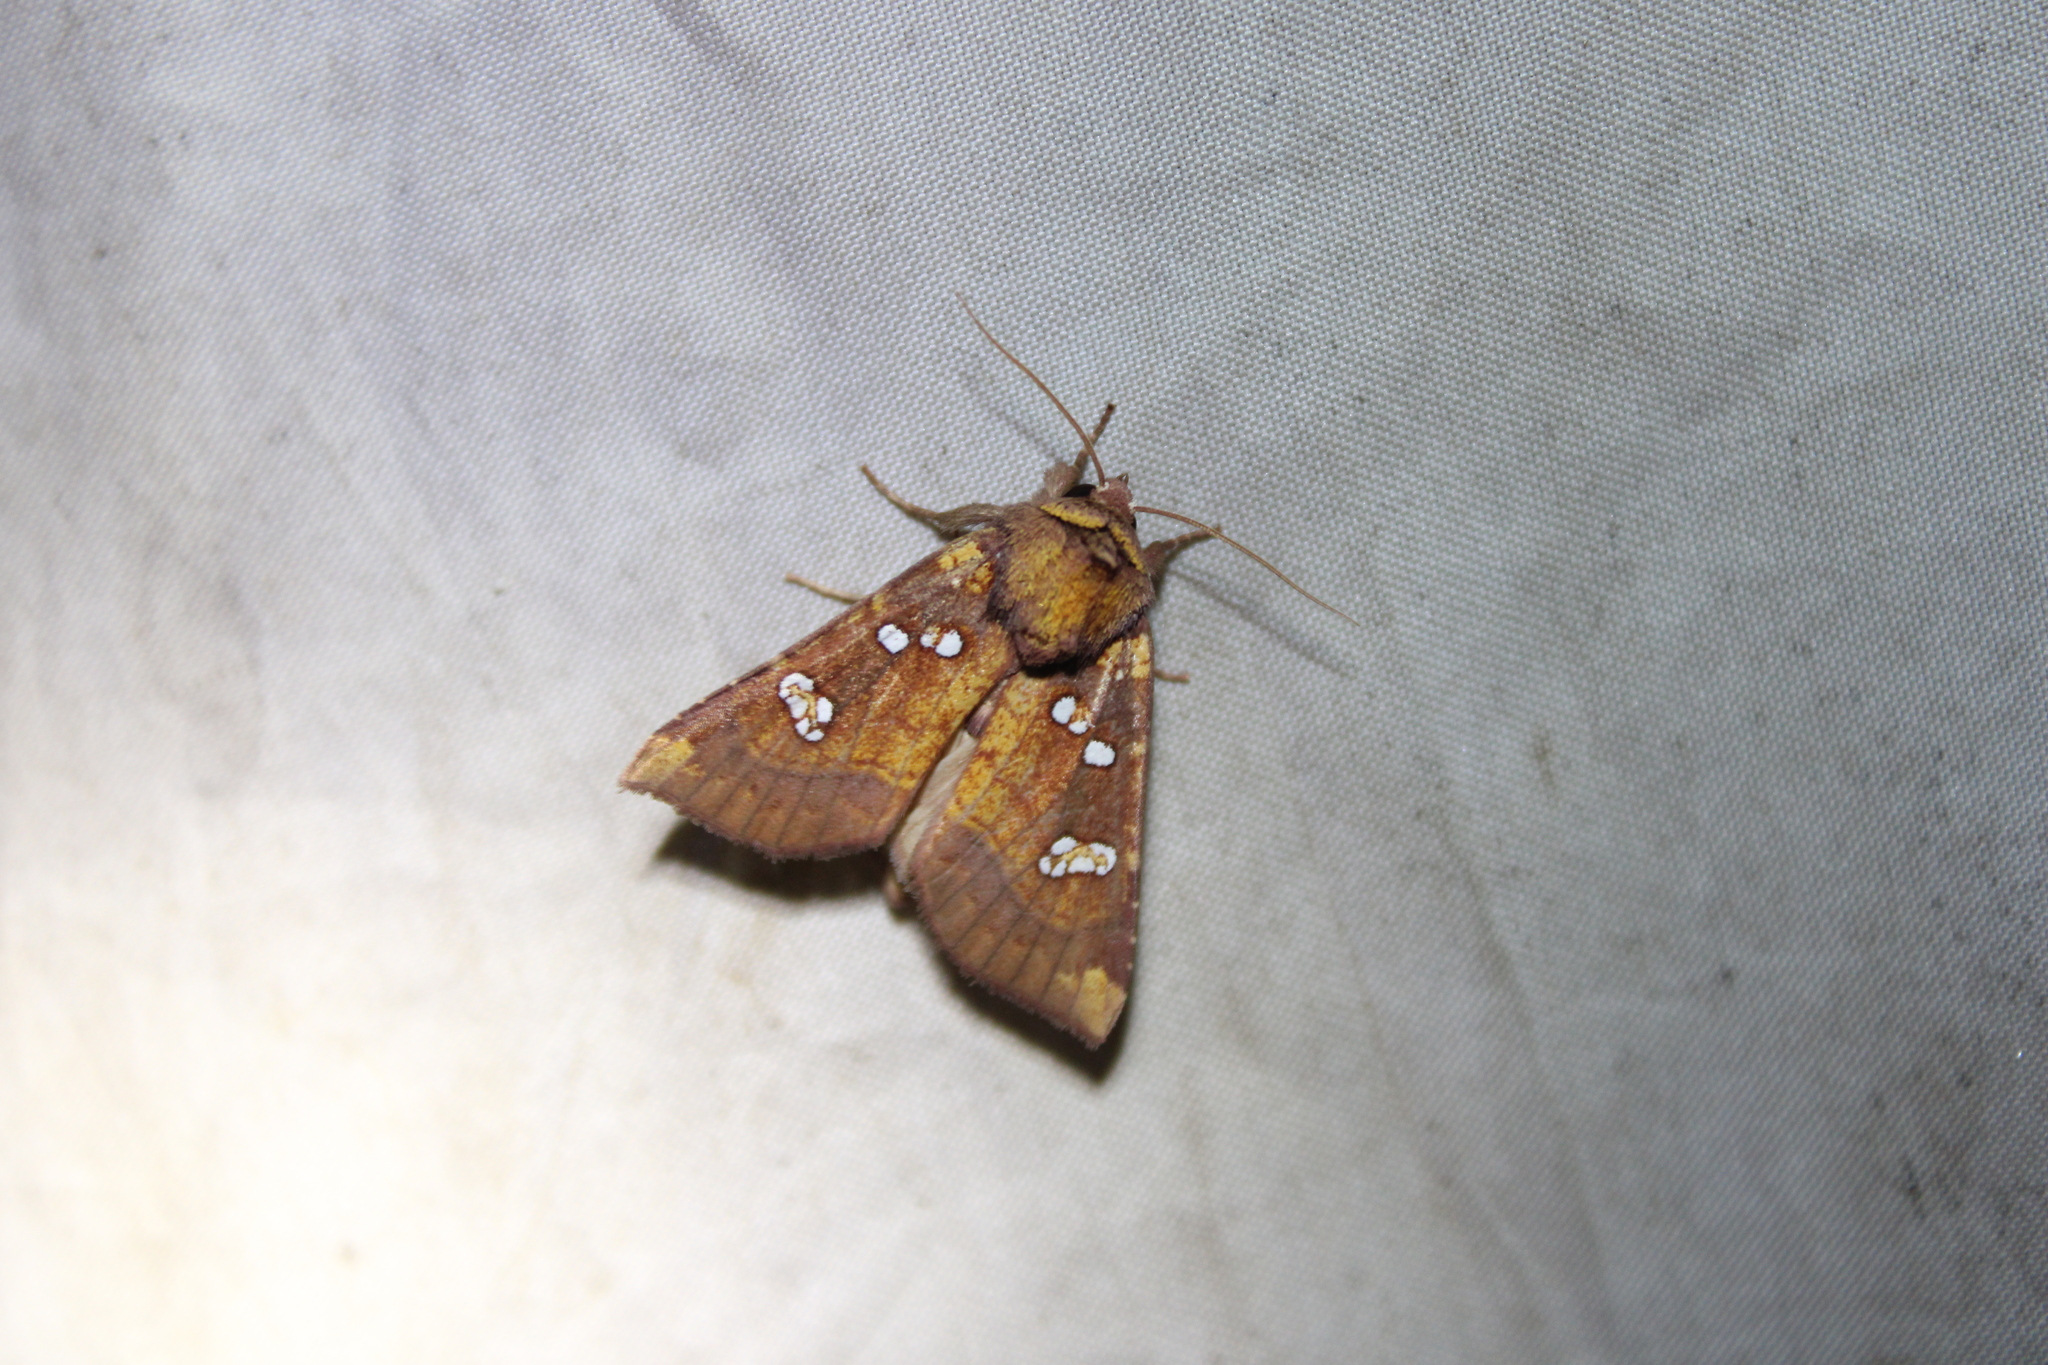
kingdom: Animalia
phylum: Arthropoda
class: Insecta
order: Lepidoptera
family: Noctuidae
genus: Papaipema
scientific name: Papaipema baptisiae
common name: Wild indigo borer moth
